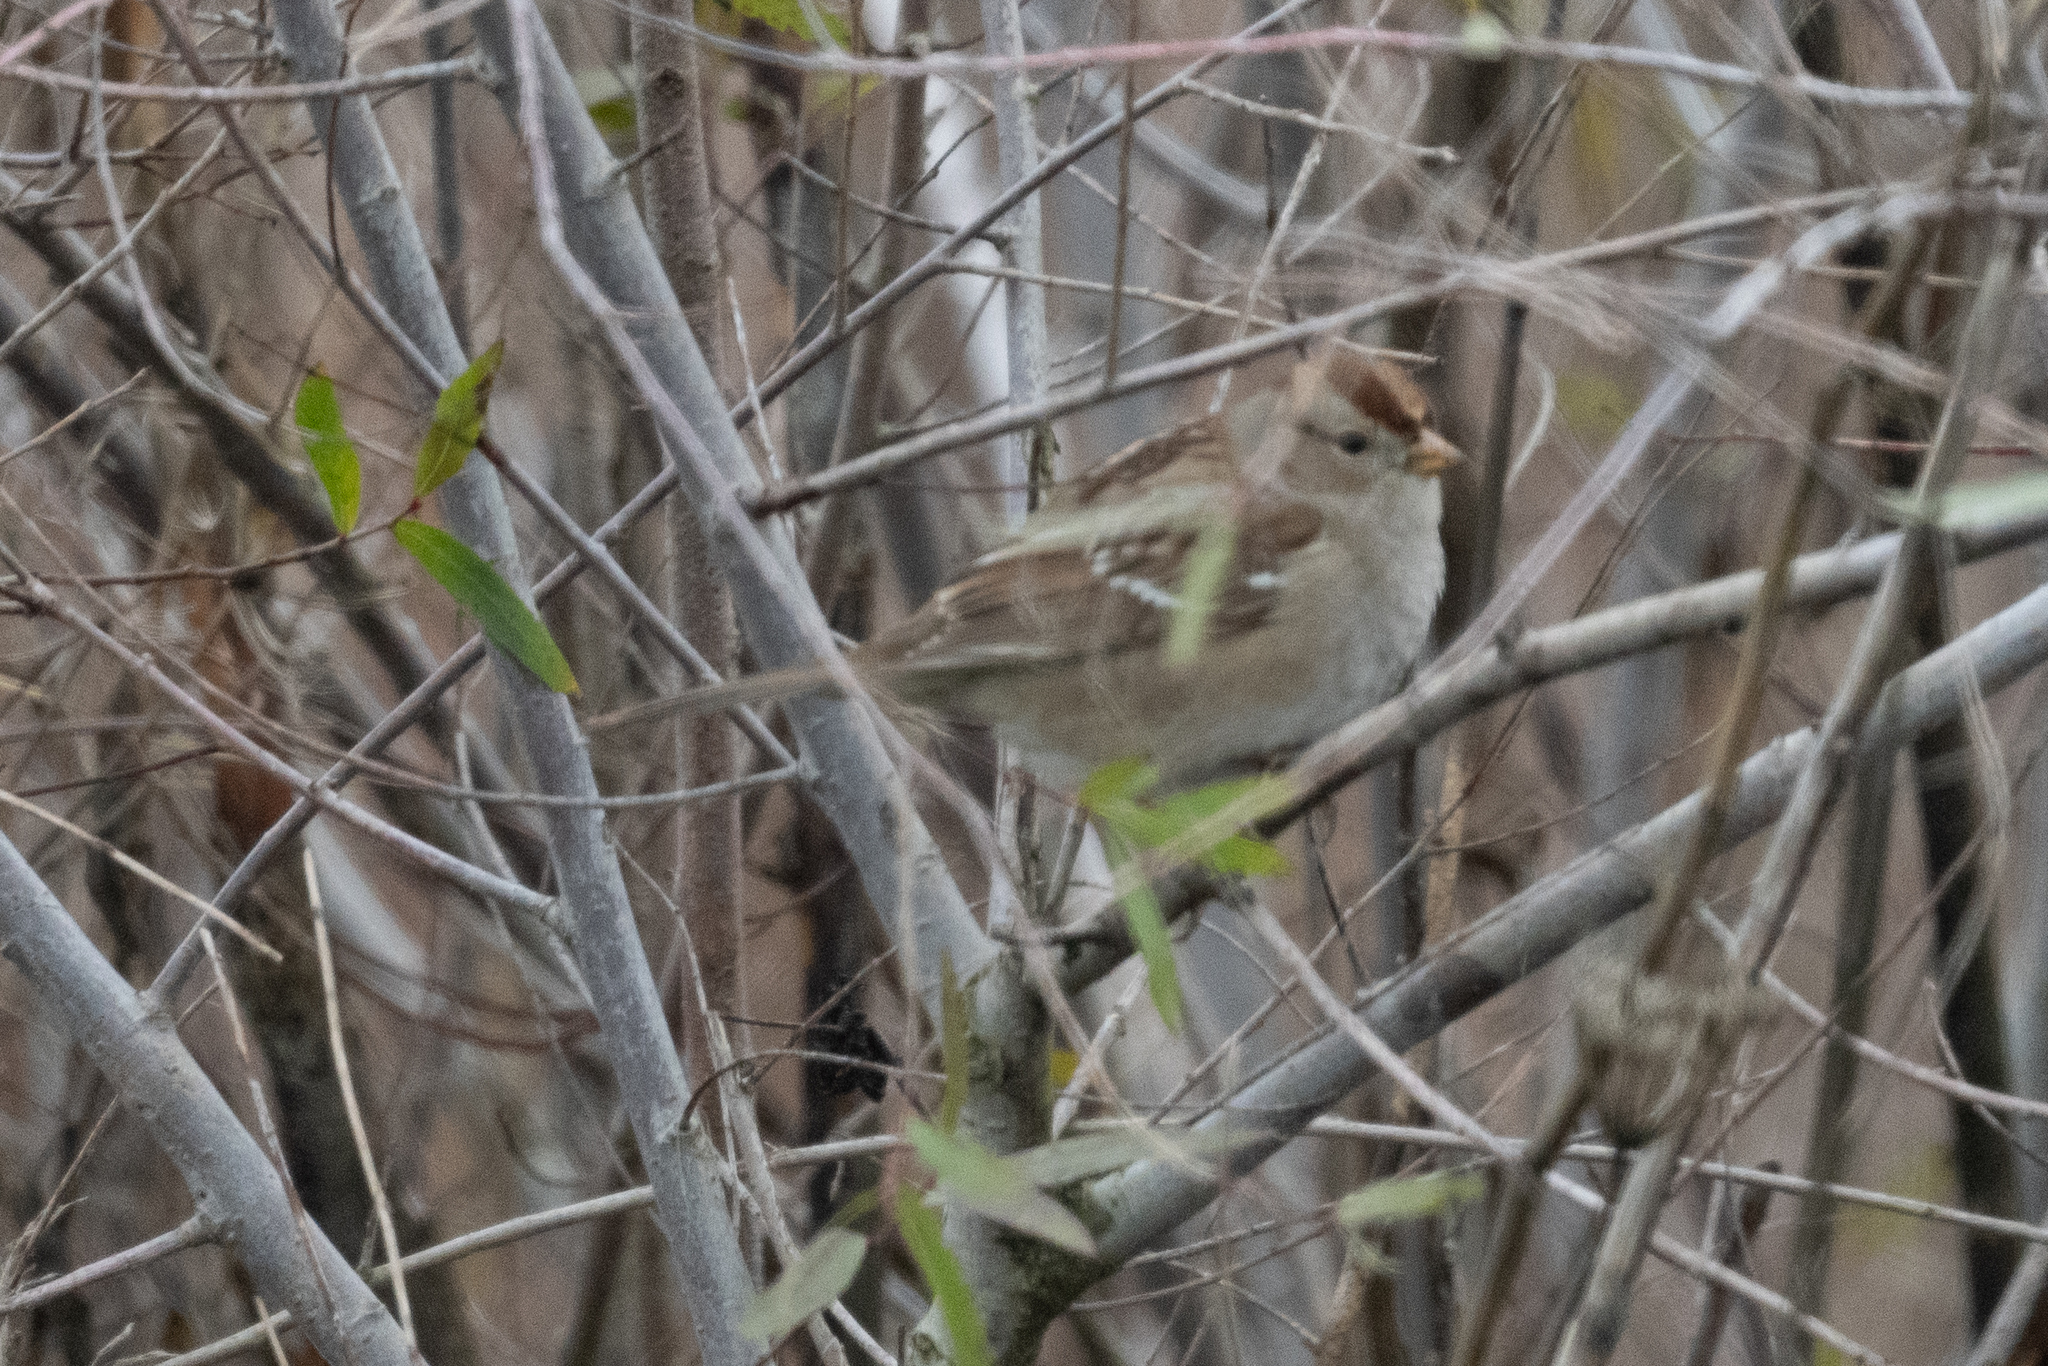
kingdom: Animalia
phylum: Chordata
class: Aves
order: Passeriformes
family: Passerellidae
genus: Zonotrichia
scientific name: Zonotrichia leucophrys
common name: White-crowned sparrow
